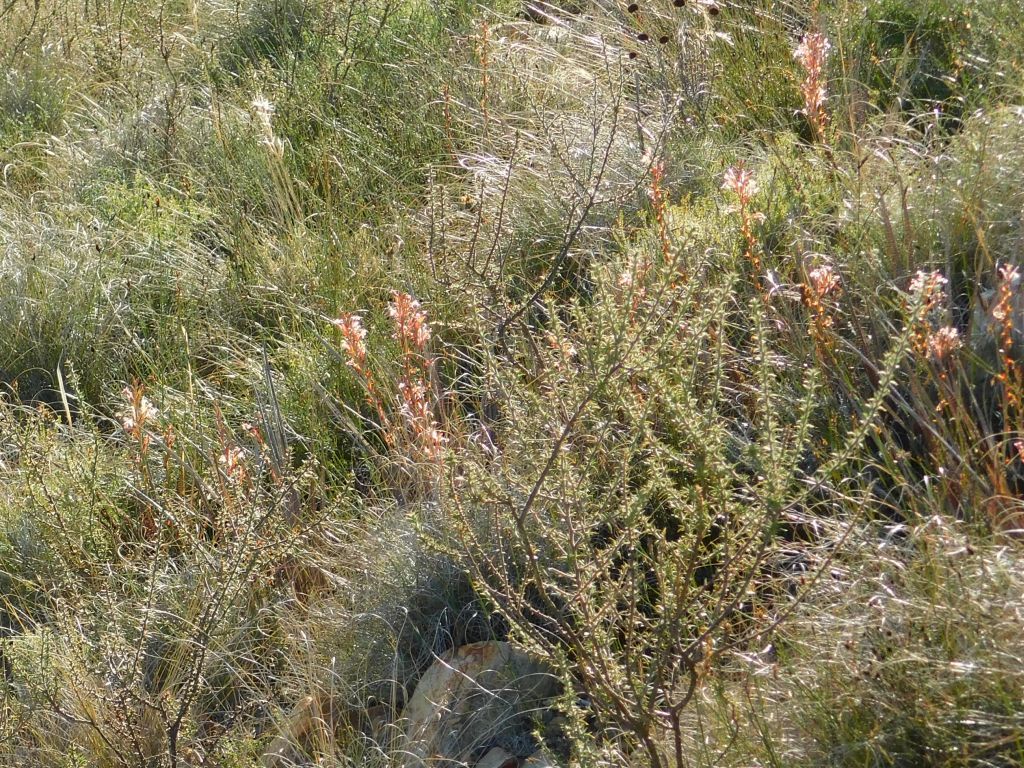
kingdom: Plantae
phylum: Tracheophyta
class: Liliopsida
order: Asparagales
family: Iridaceae
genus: Tritoniopsis
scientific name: Tritoniopsis elongata
